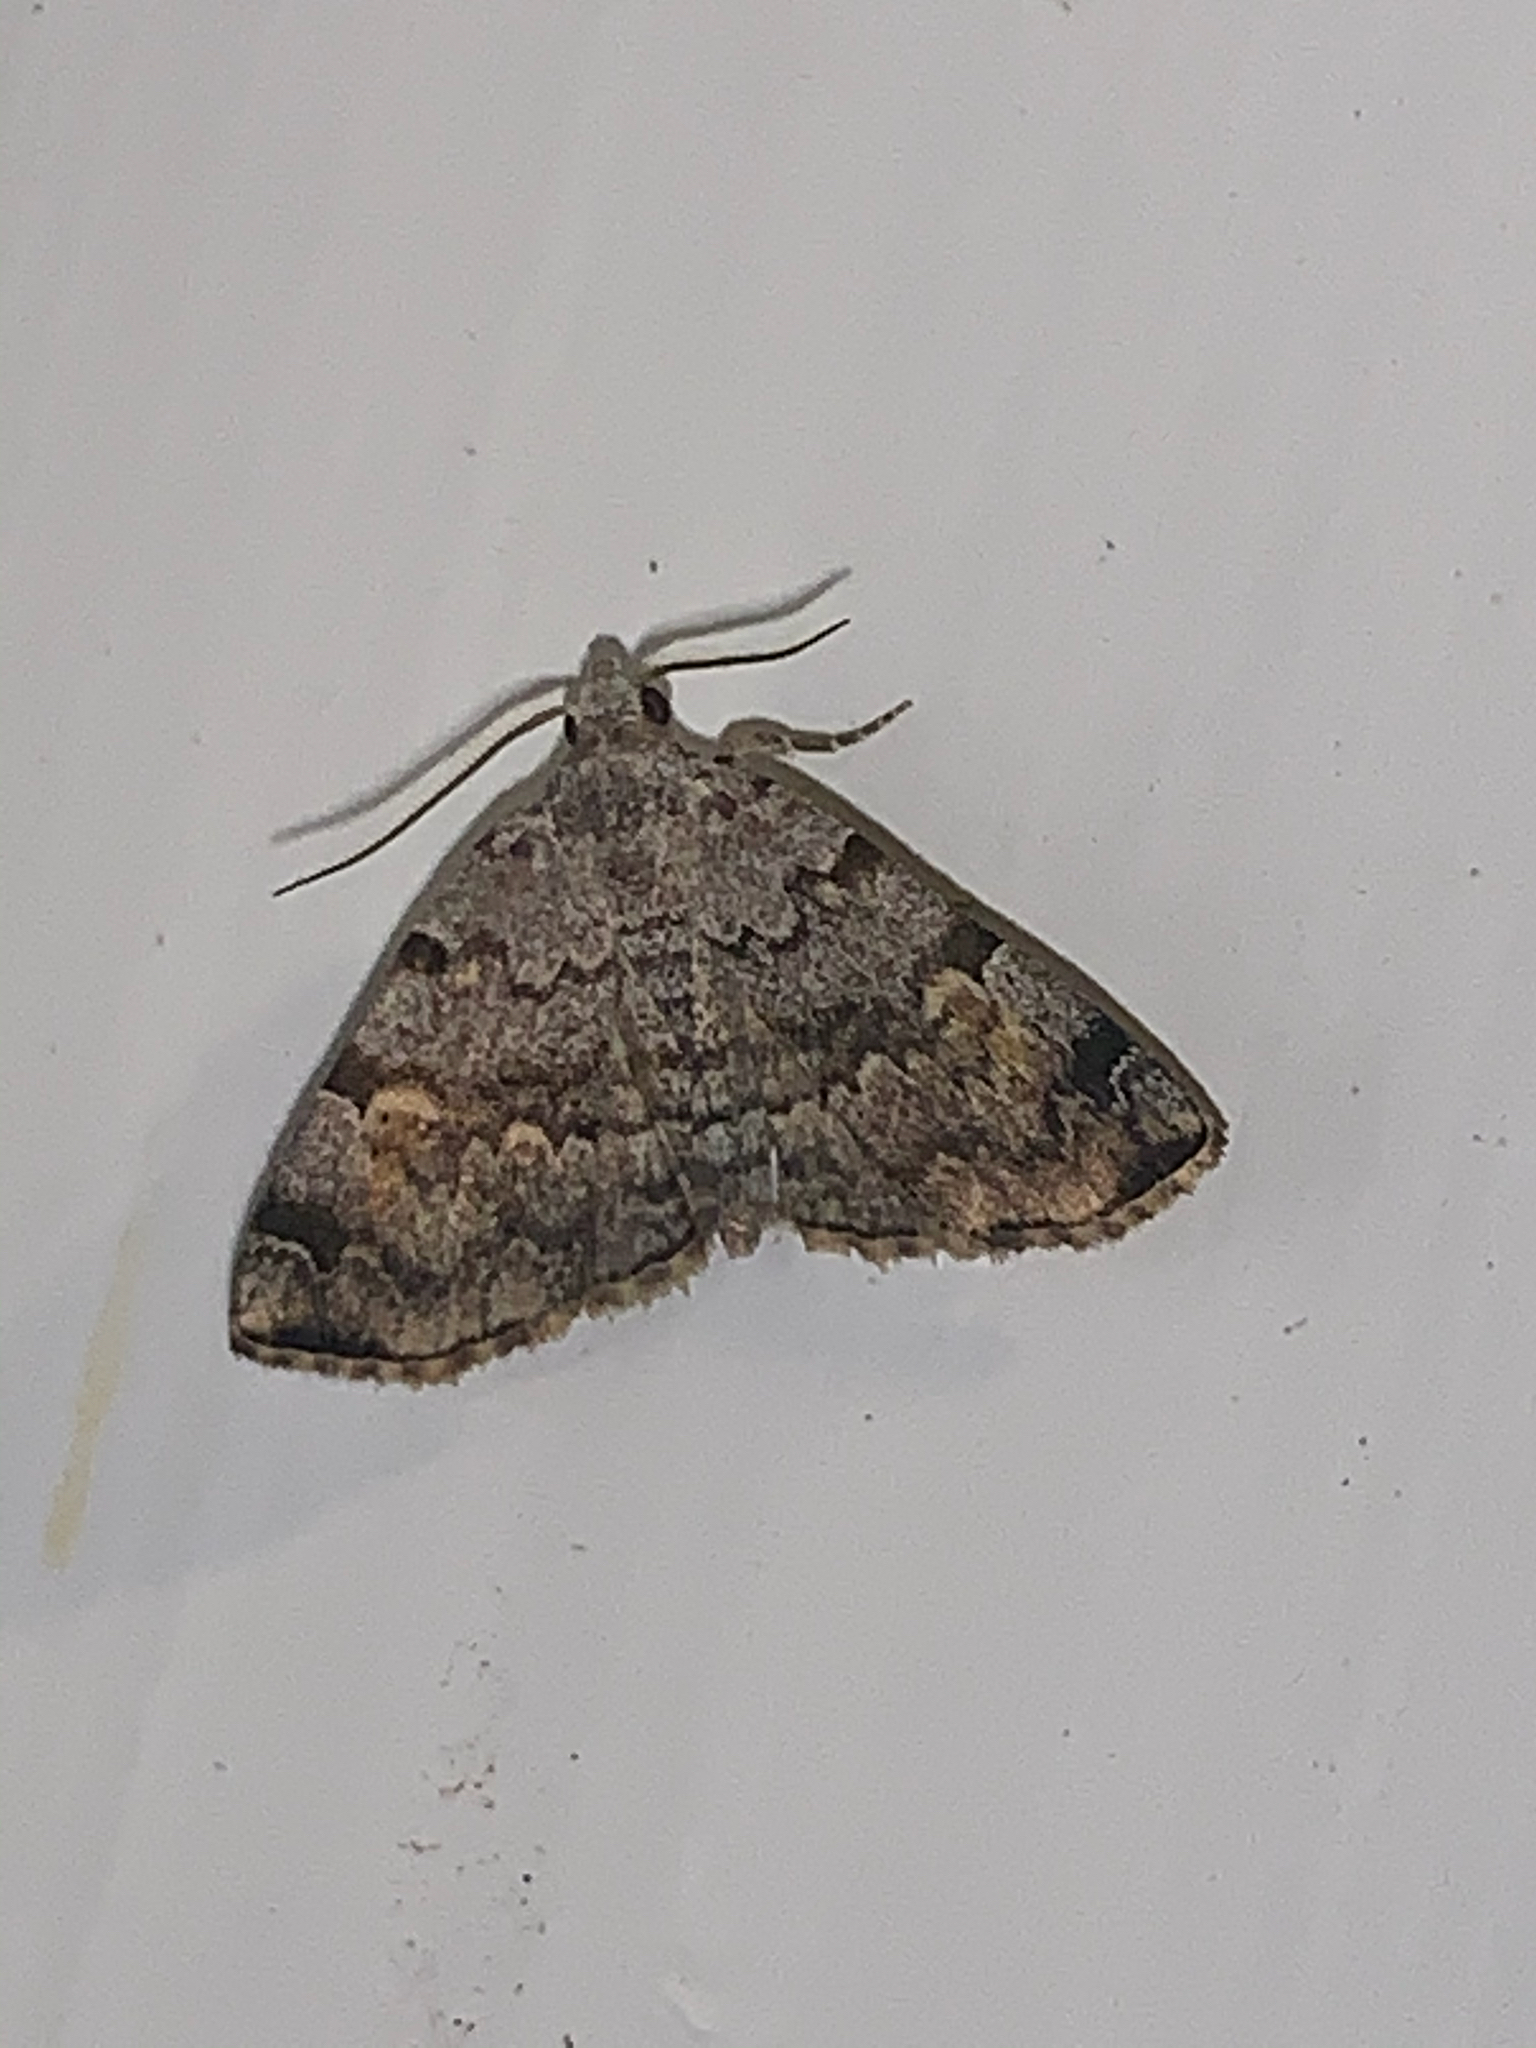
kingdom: Animalia
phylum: Arthropoda
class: Insecta
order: Lepidoptera
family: Erebidae
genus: Idia
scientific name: Idia americalis
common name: American idia moth
